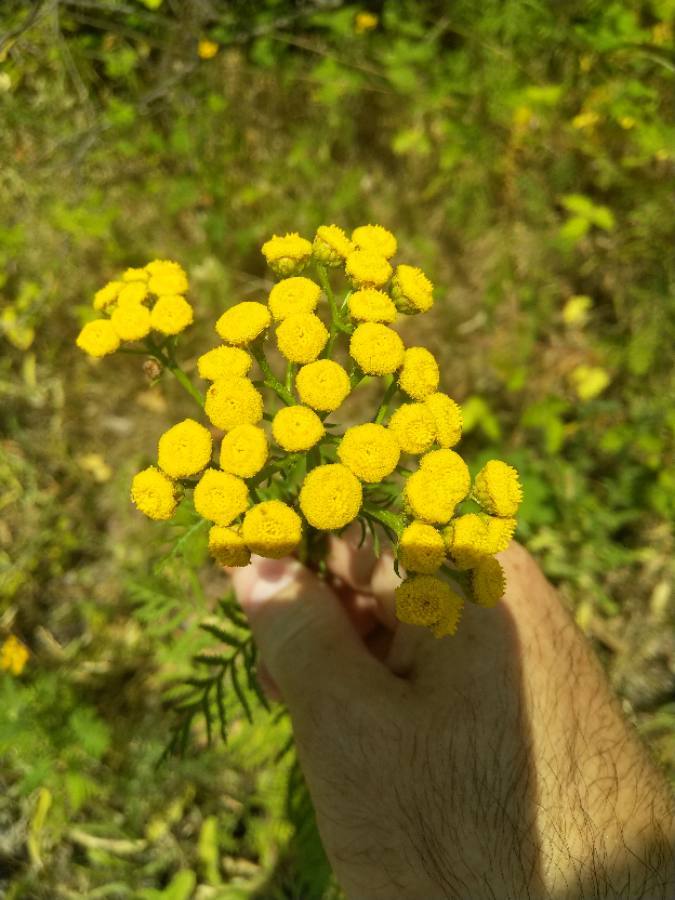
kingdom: Plantae
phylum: Tracheophyta
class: Magnoliopsida
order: Asterales
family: Asteraceae
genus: Tanacetum
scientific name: Tanacetum vulgare
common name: Common tansy
